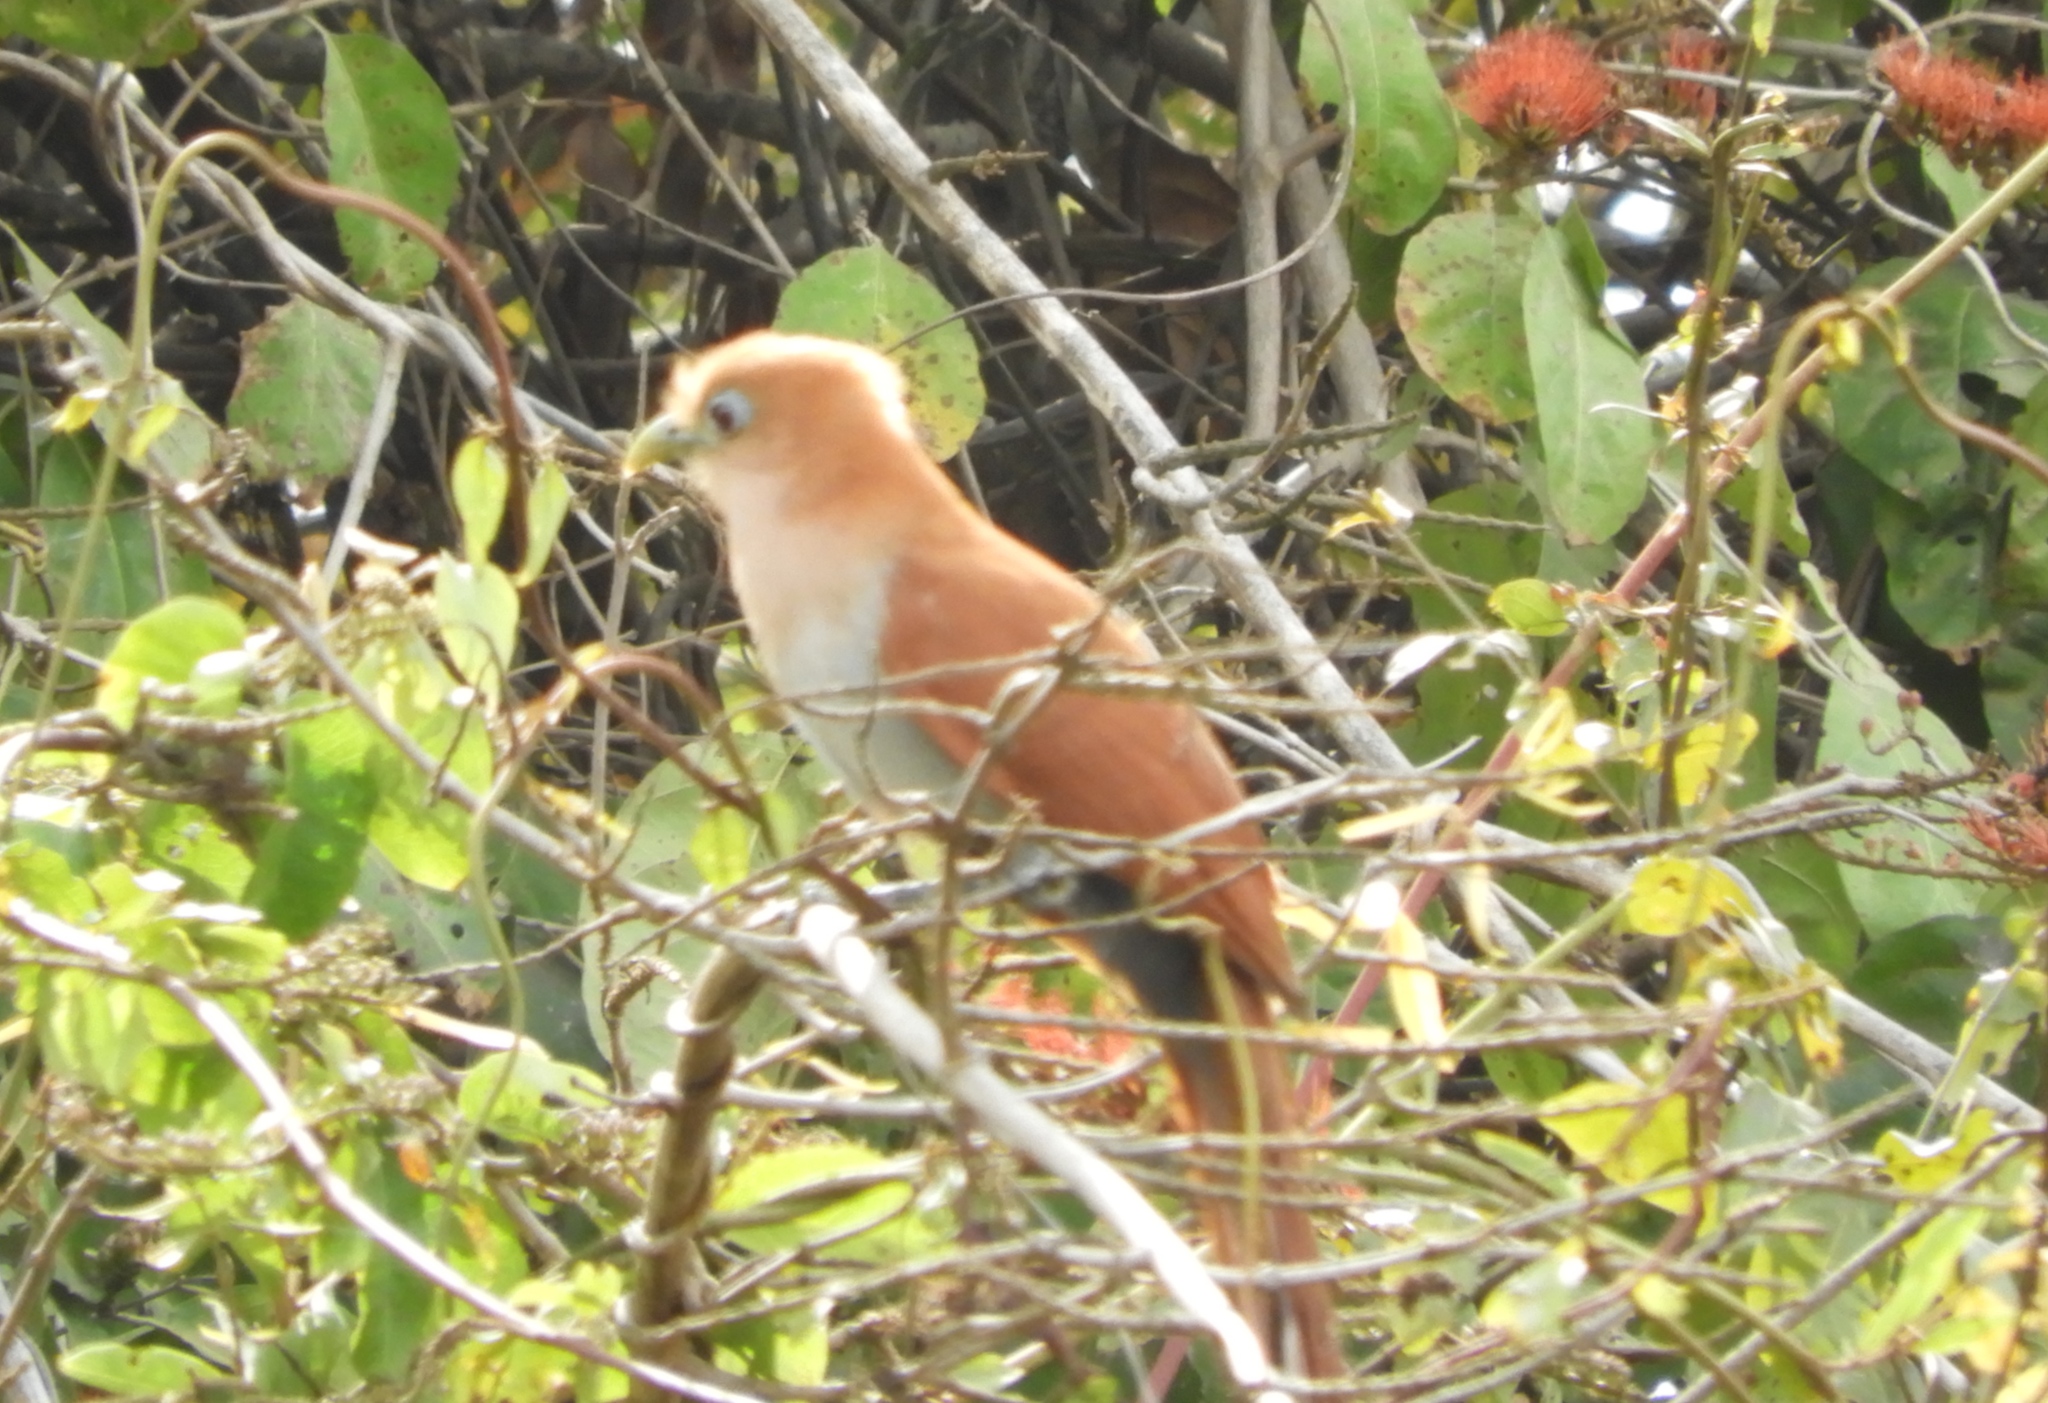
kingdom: Animalia
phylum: Chordata
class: Aves
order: Cuculiformes
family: Cuculidae
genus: Piaya
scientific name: Piaya cayana
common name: Squirrel cuckoo
